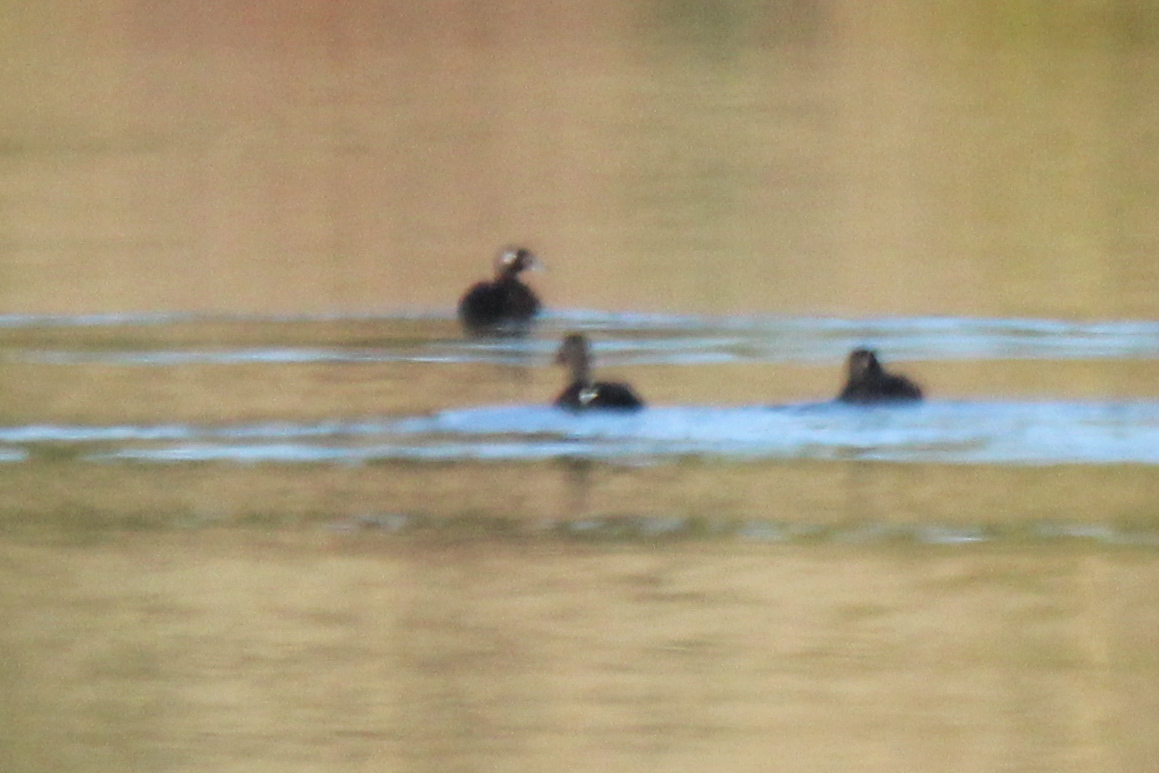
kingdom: Animalia
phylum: Chordata
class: Aves
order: Anseriformes
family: Anatidae
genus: Melanitta
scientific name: Melanitta stejnegeri
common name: Stejneger's scoter
